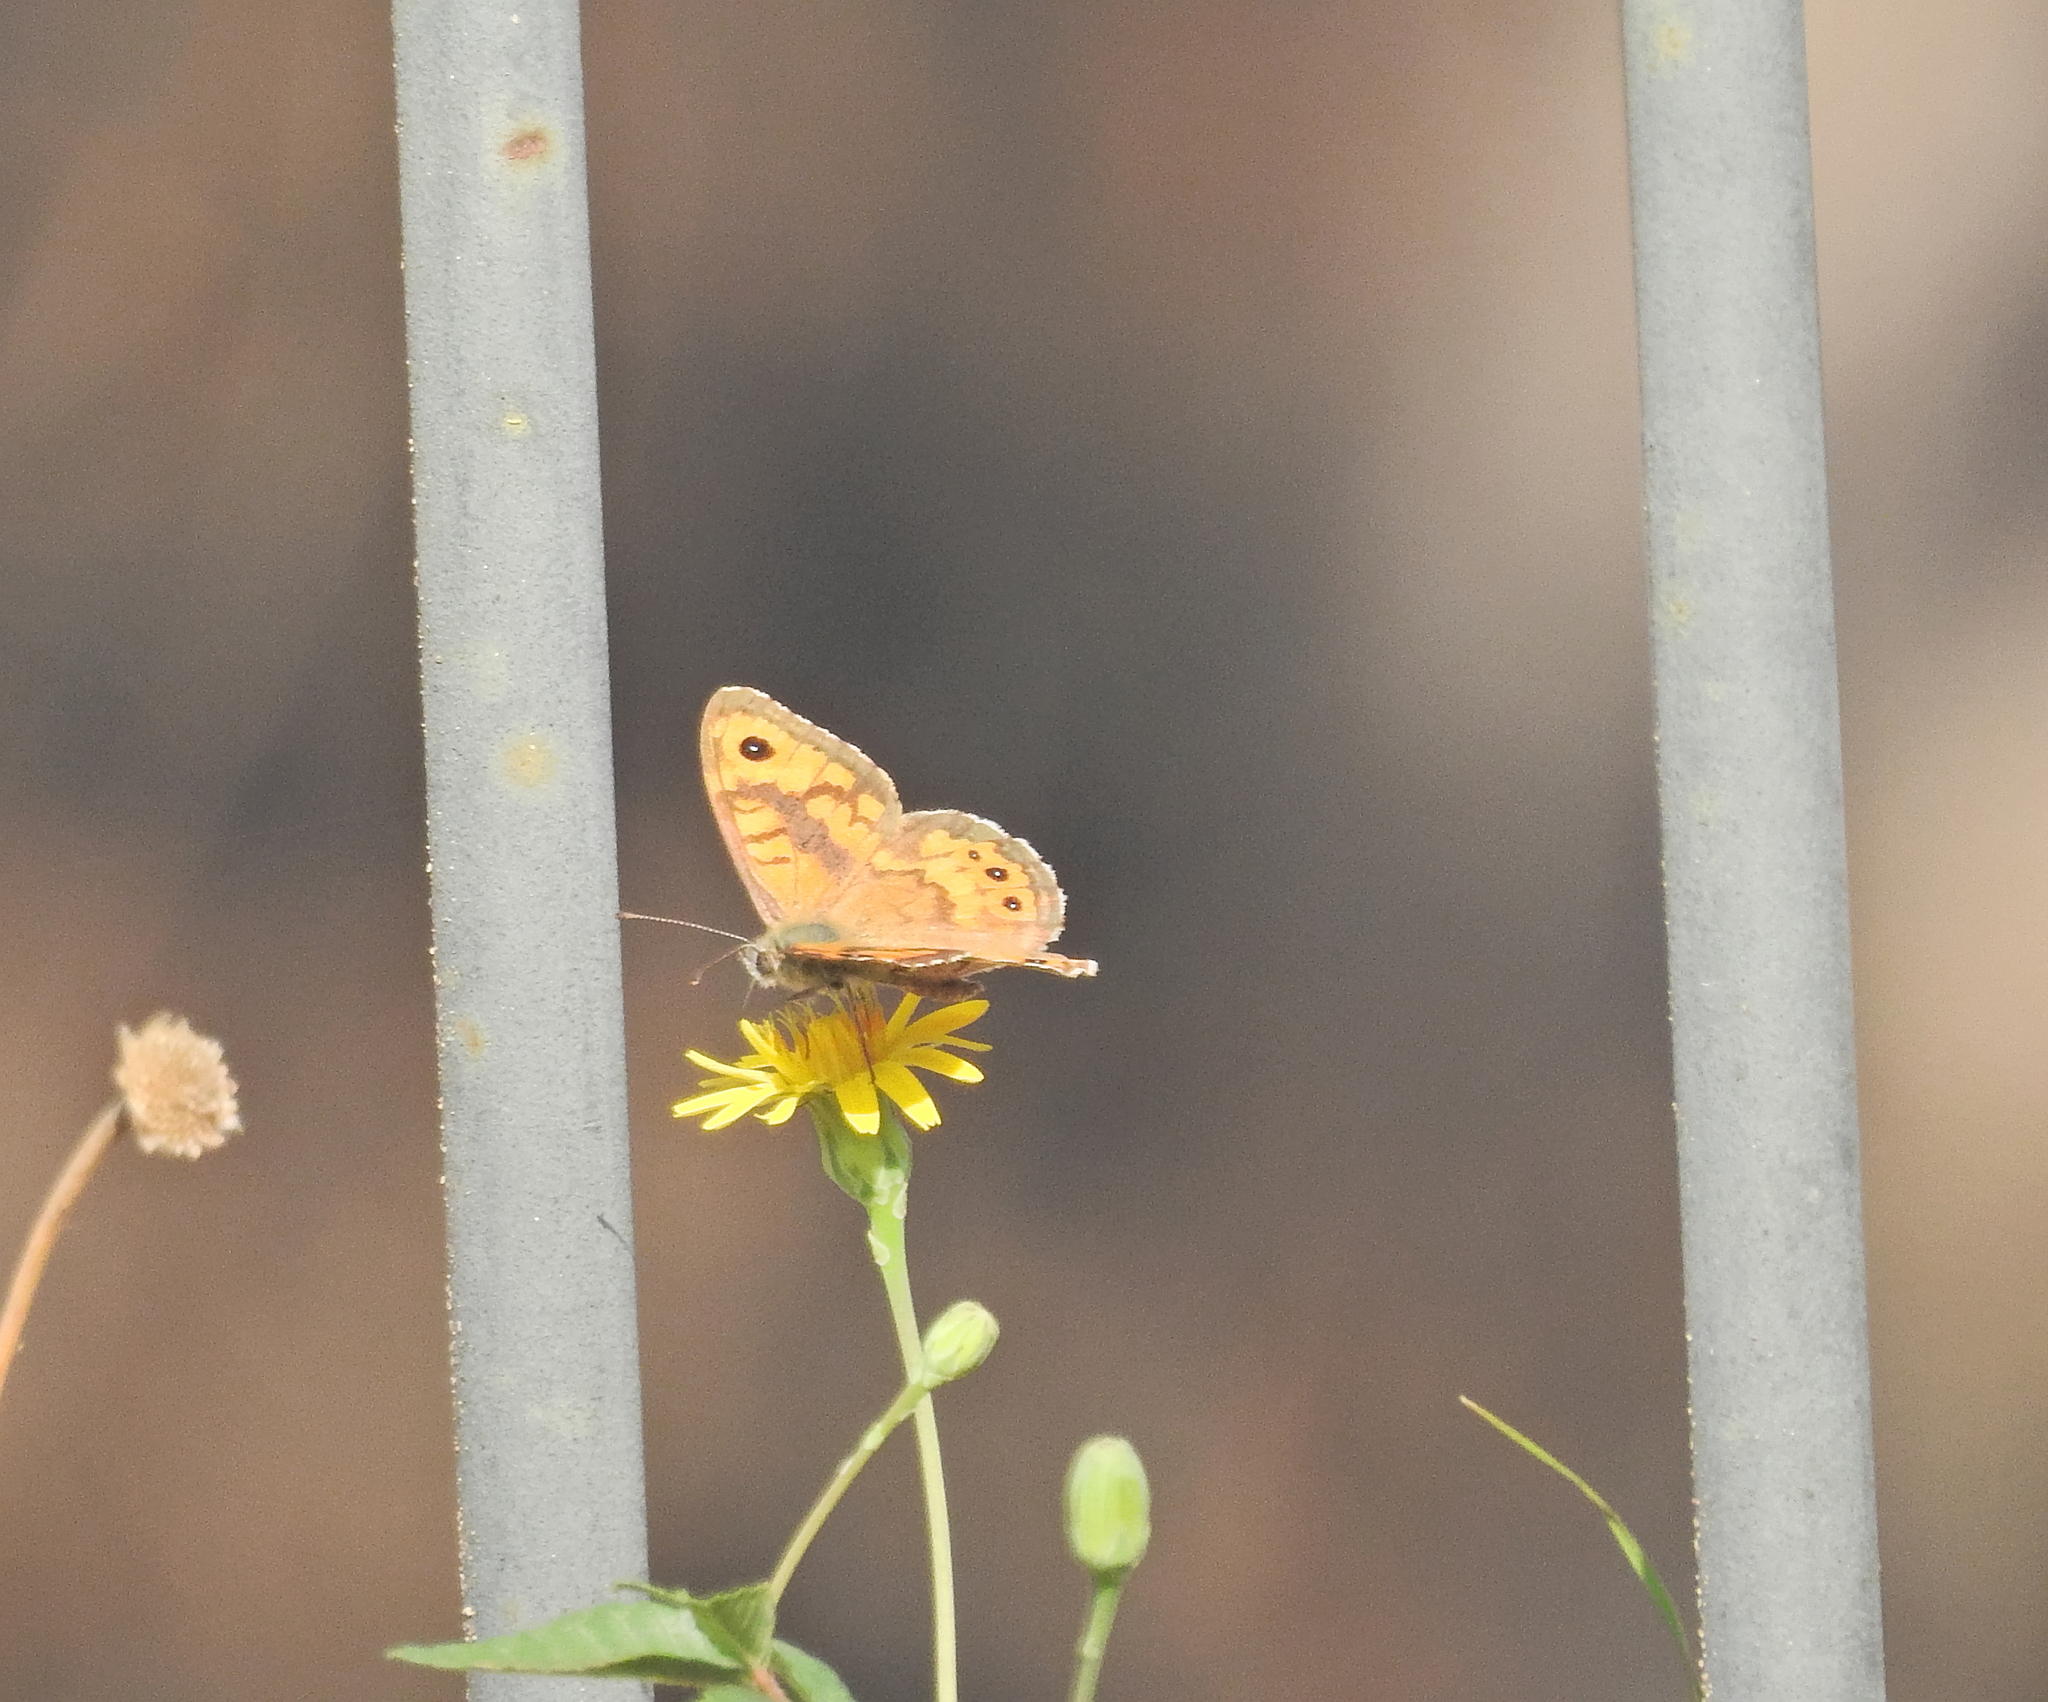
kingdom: Animalia
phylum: Arthropoda
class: Insecta
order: Lepidoptera
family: Nymphalidae
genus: Pararge
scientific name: Pararge Lasiommata megera
